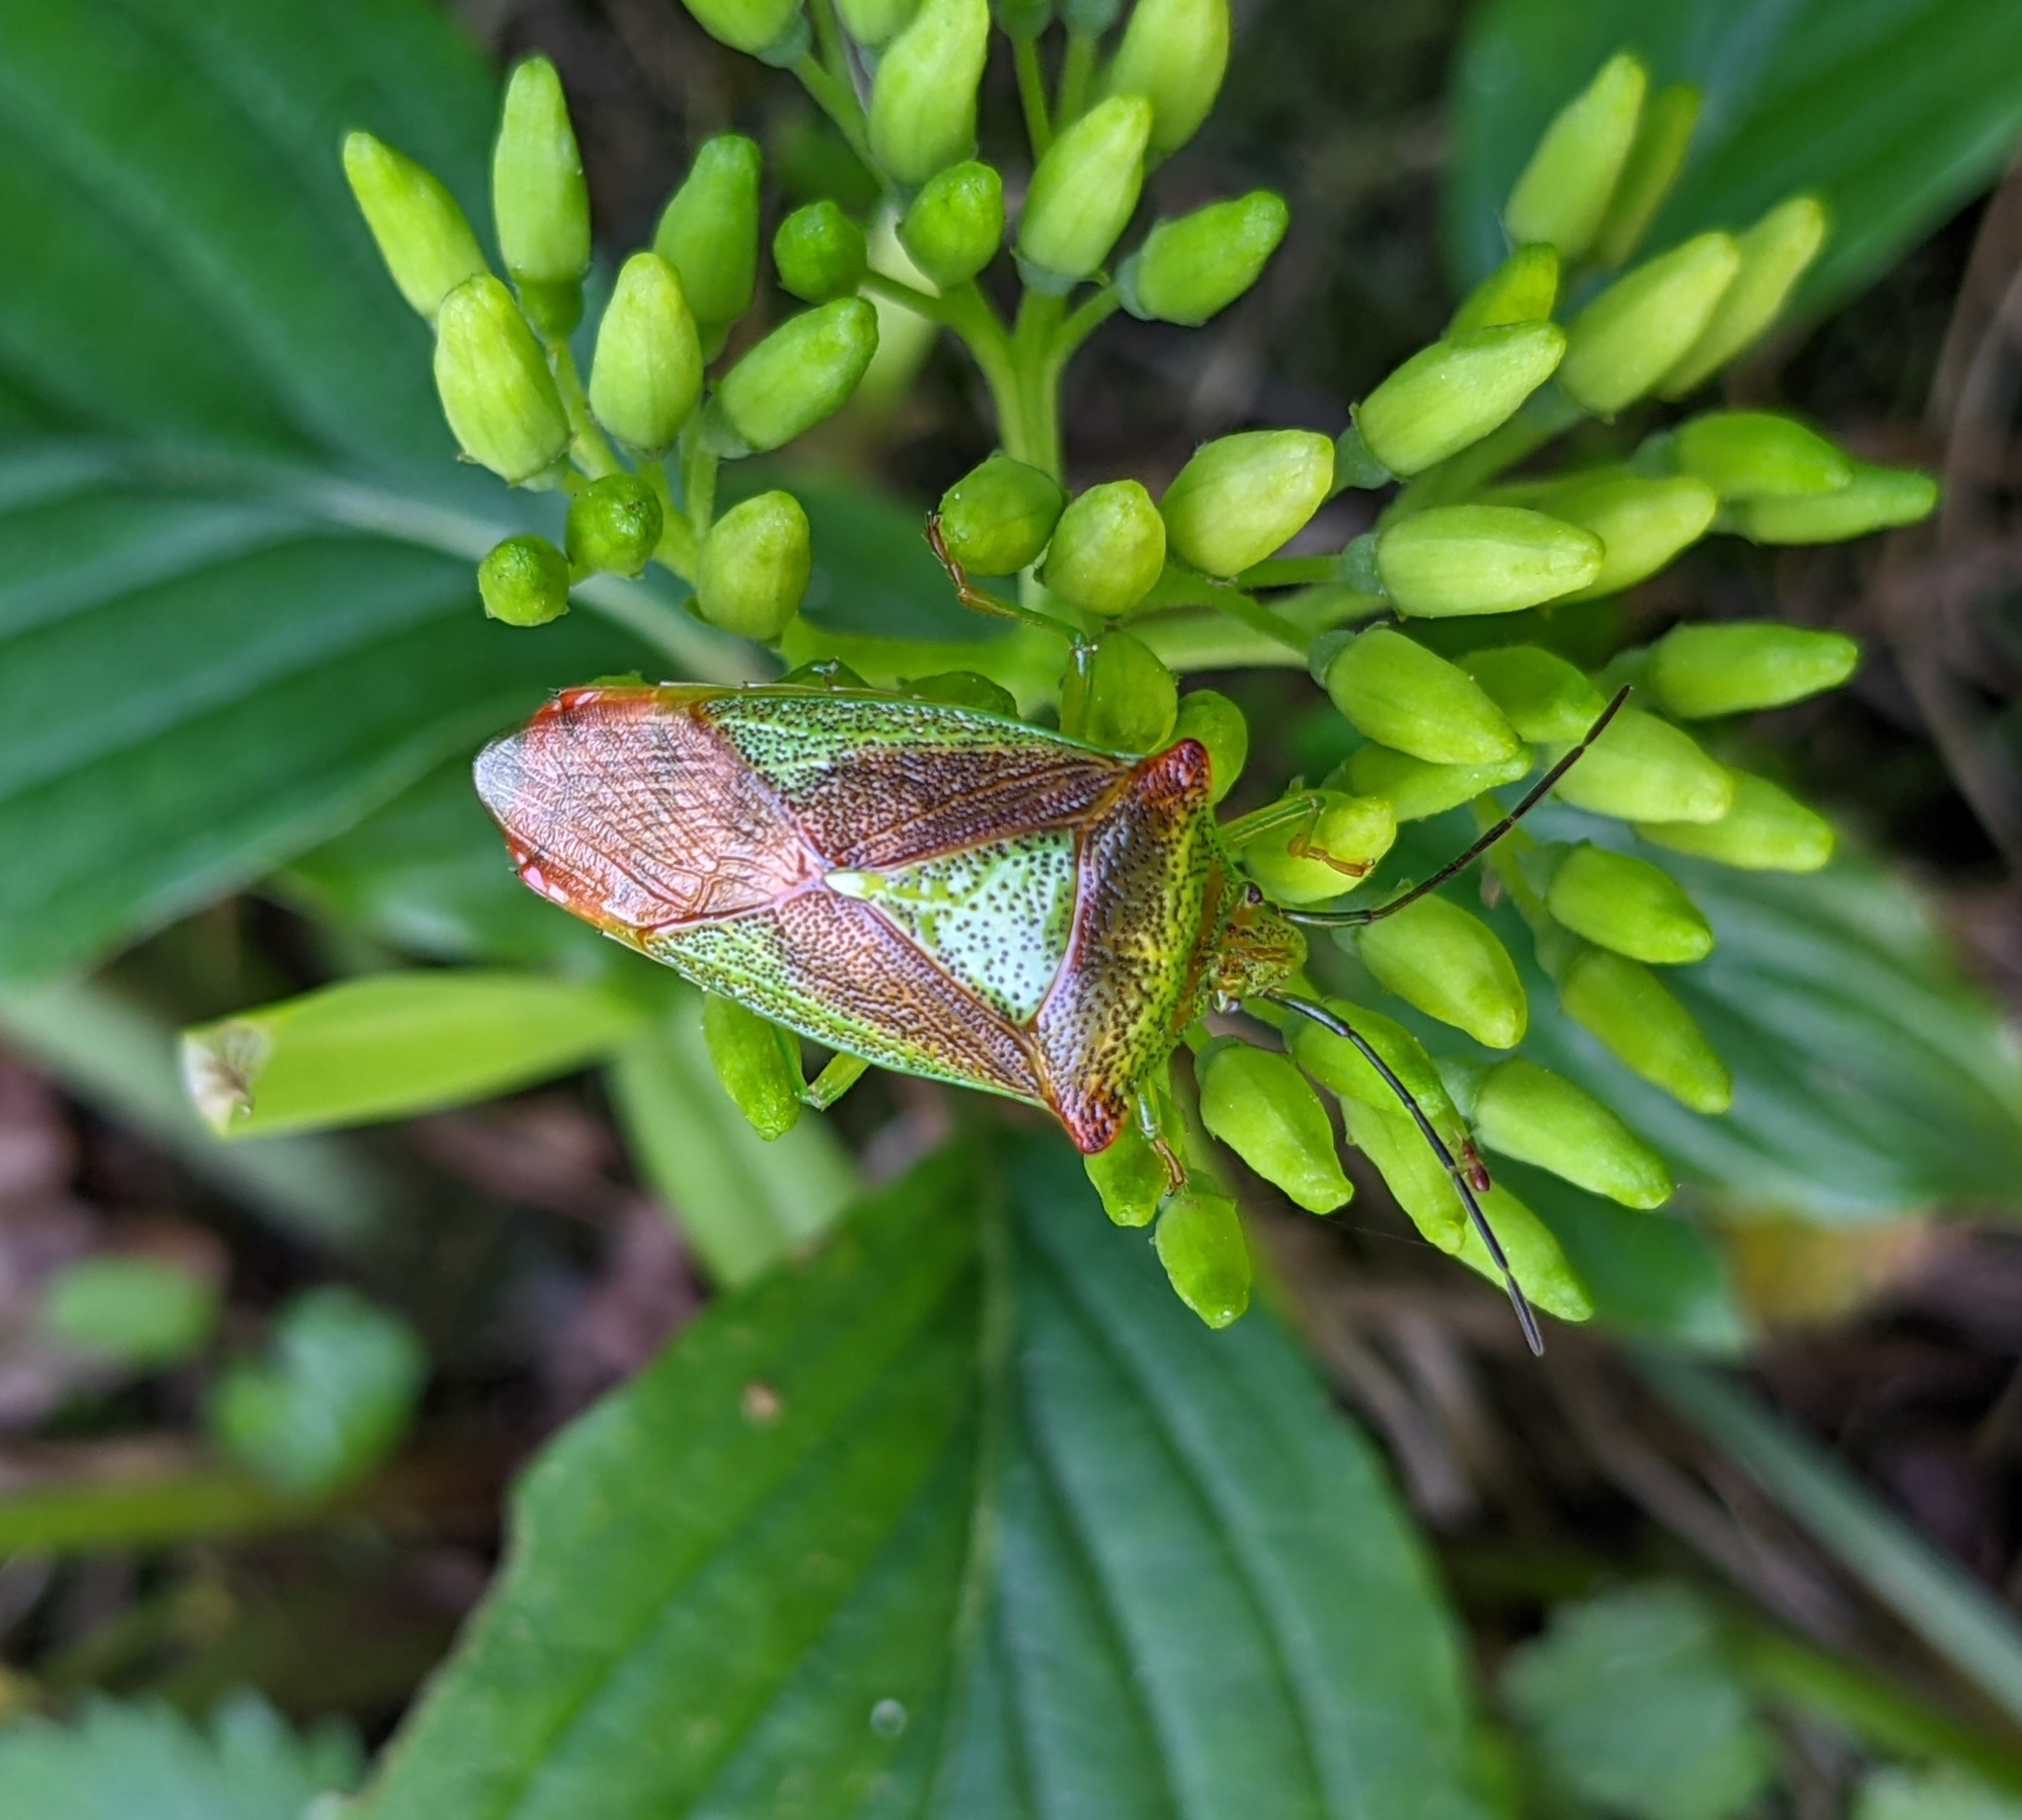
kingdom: Animalia
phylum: Arthropoda
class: Insecta
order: Hemiptera
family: Acanthosomatidae
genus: Acanthosoma
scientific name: Acanthosoma haemorrhoidale
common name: Hawthorn shieldbug
